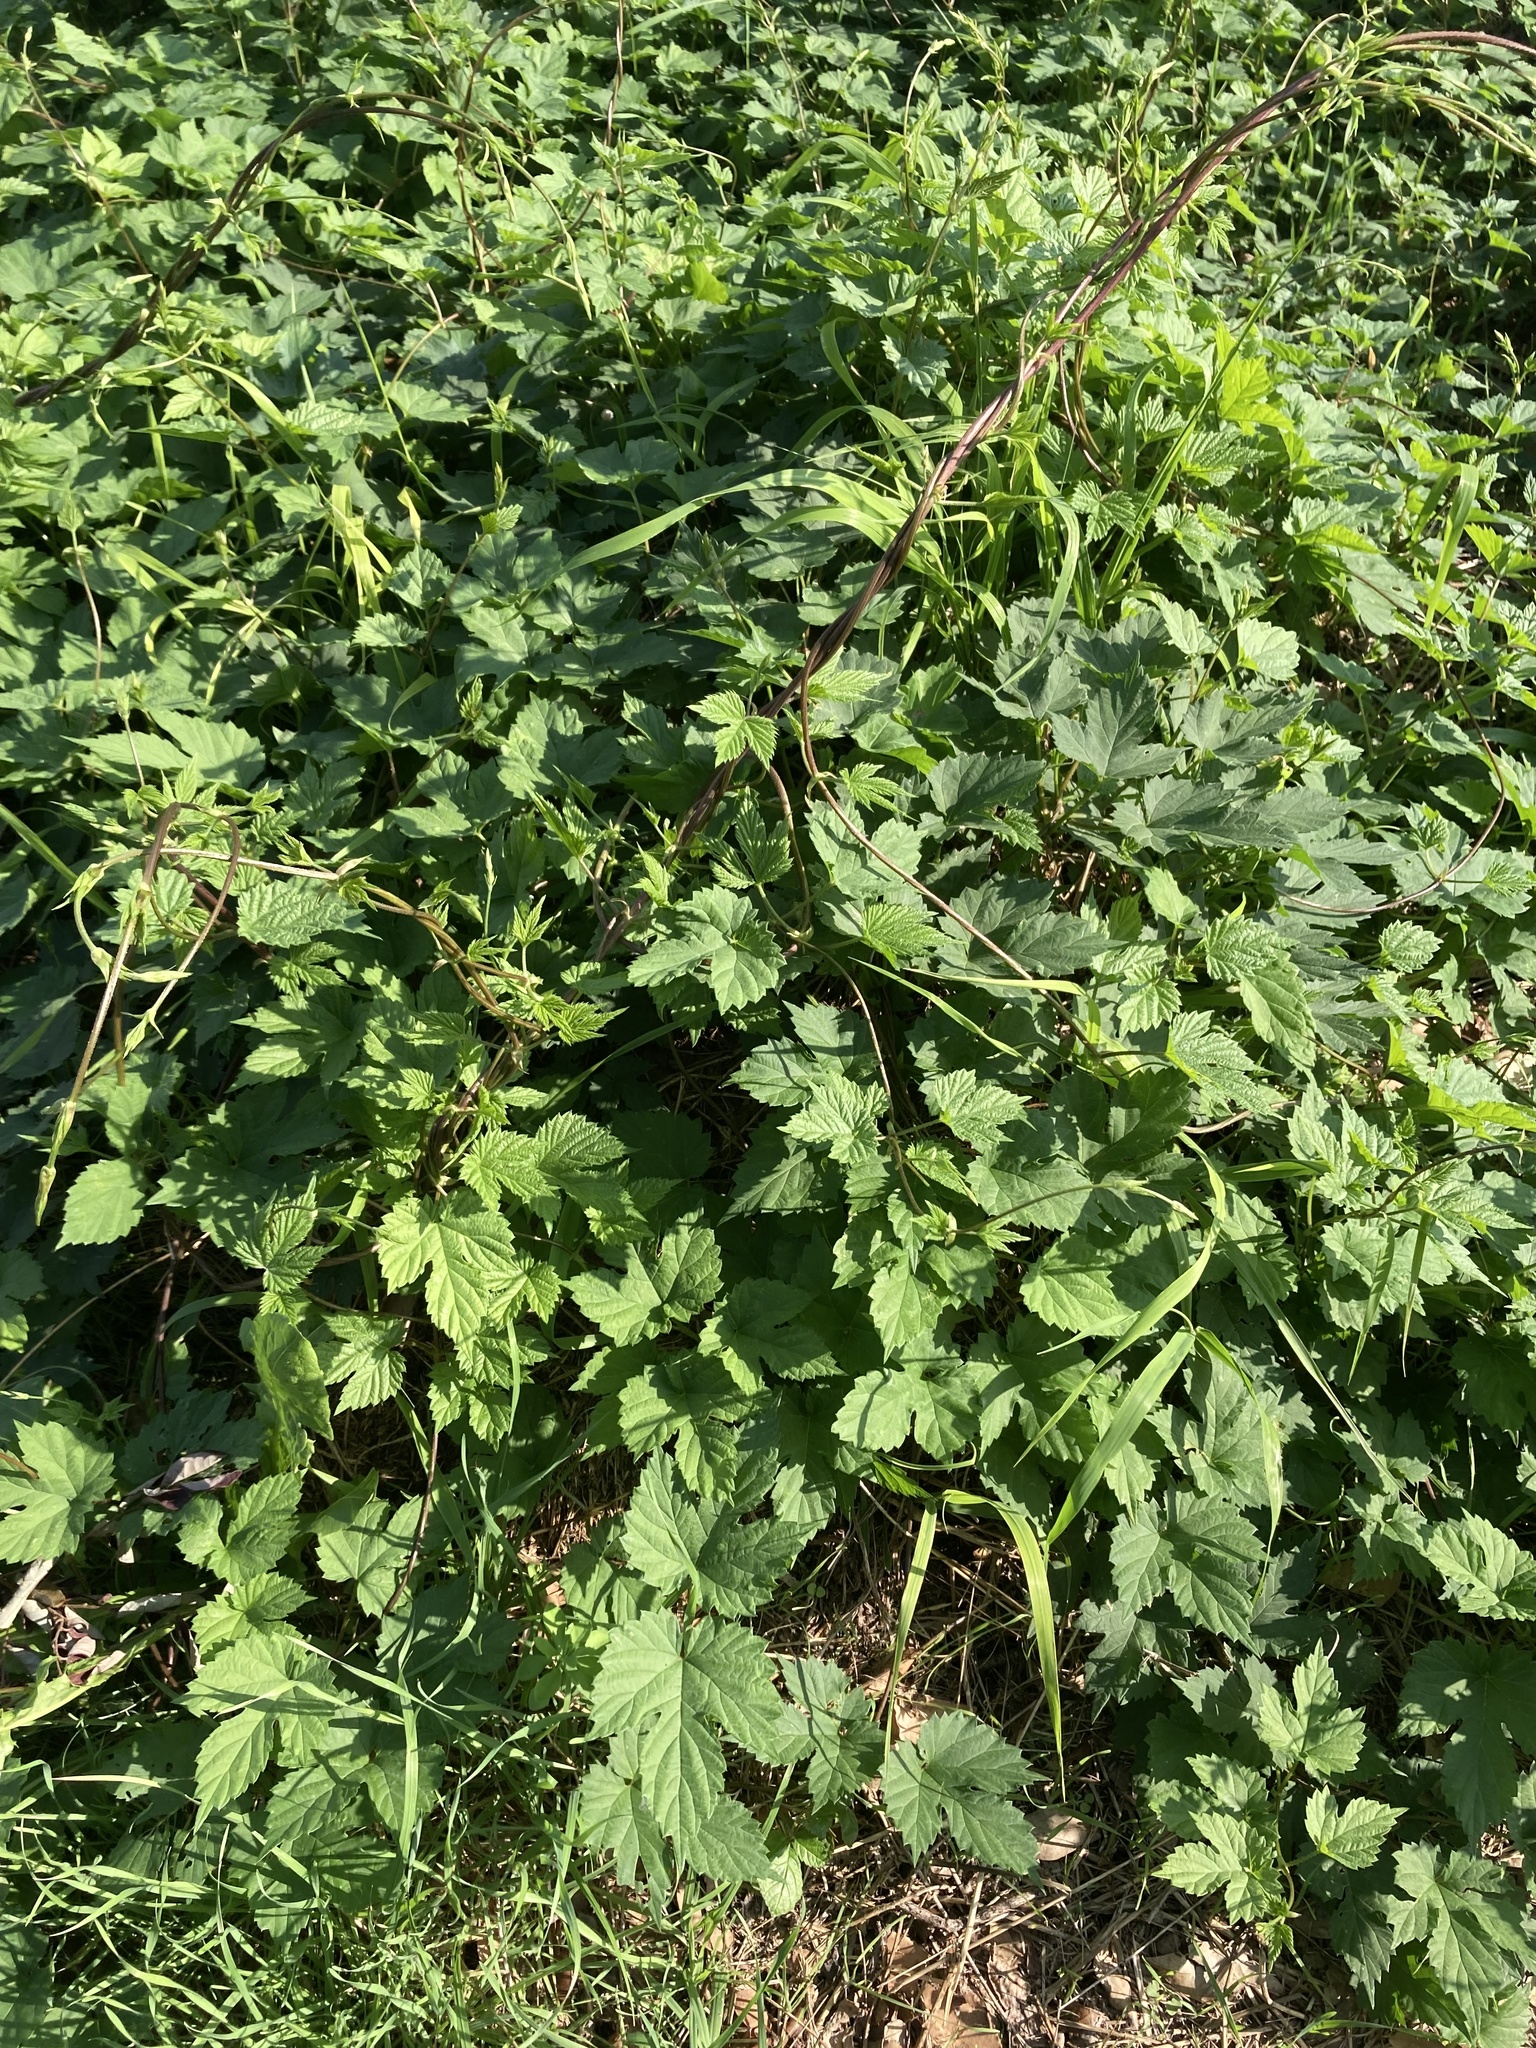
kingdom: Plantae
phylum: Tracheophyta
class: Magnoliopsida
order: Rosales
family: Cannabaceae
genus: Humulus
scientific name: Humulus lupulus
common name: Hop
